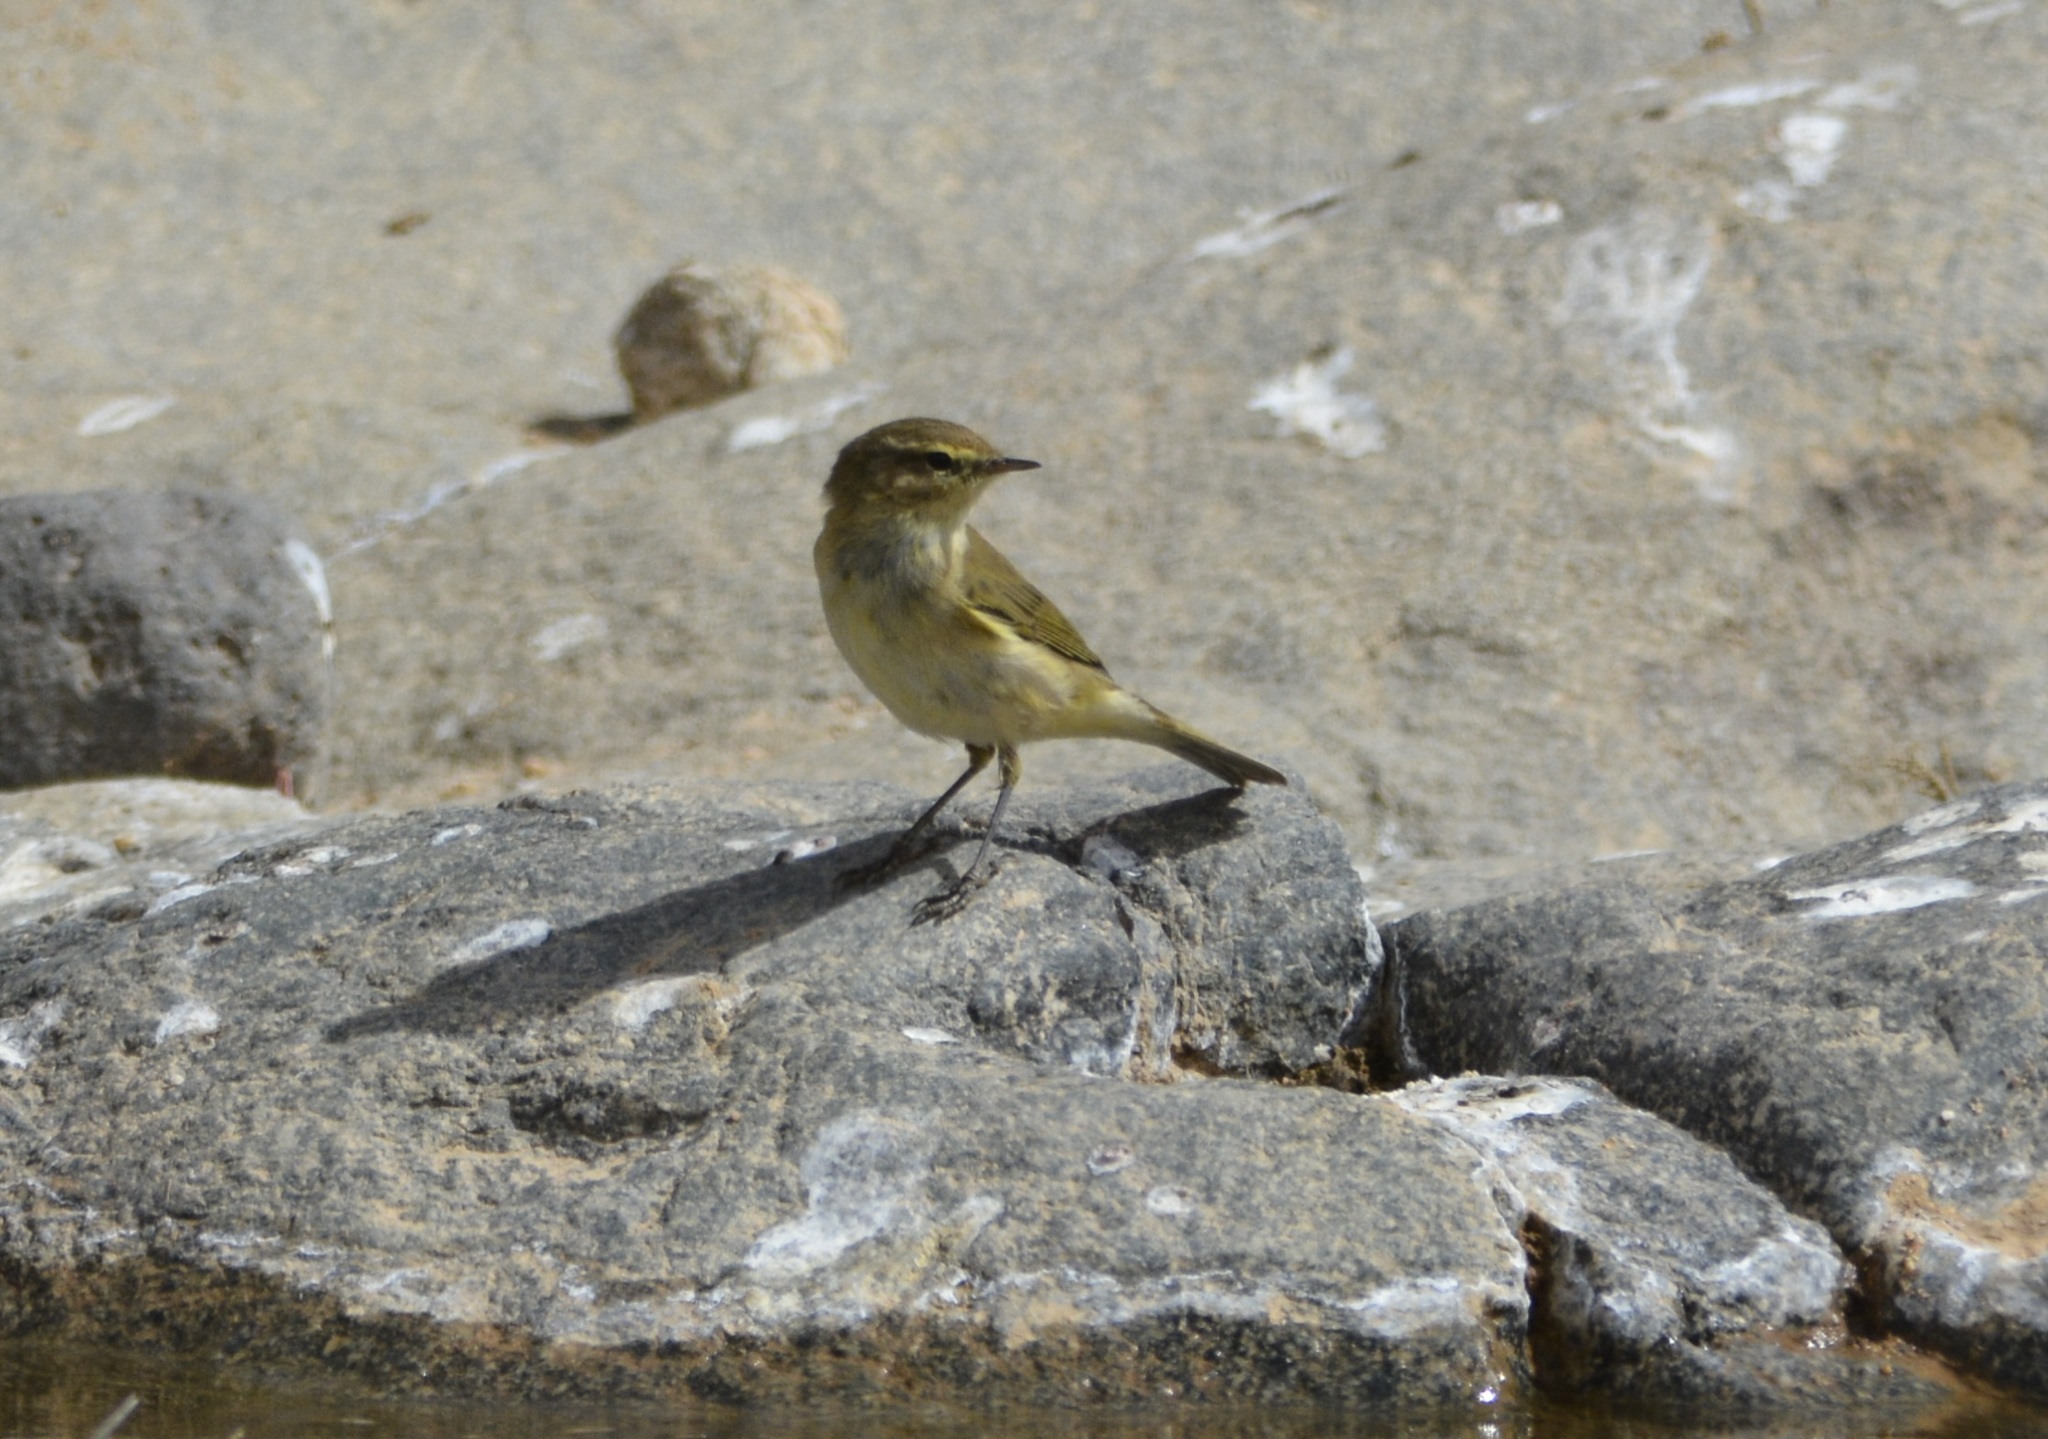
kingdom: Animalia
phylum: Chordata
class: Aves
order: Passeriformes
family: Phylloscopidae
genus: Phylloscopus
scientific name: Phylloscopus collybita
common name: Common chiffchaff
